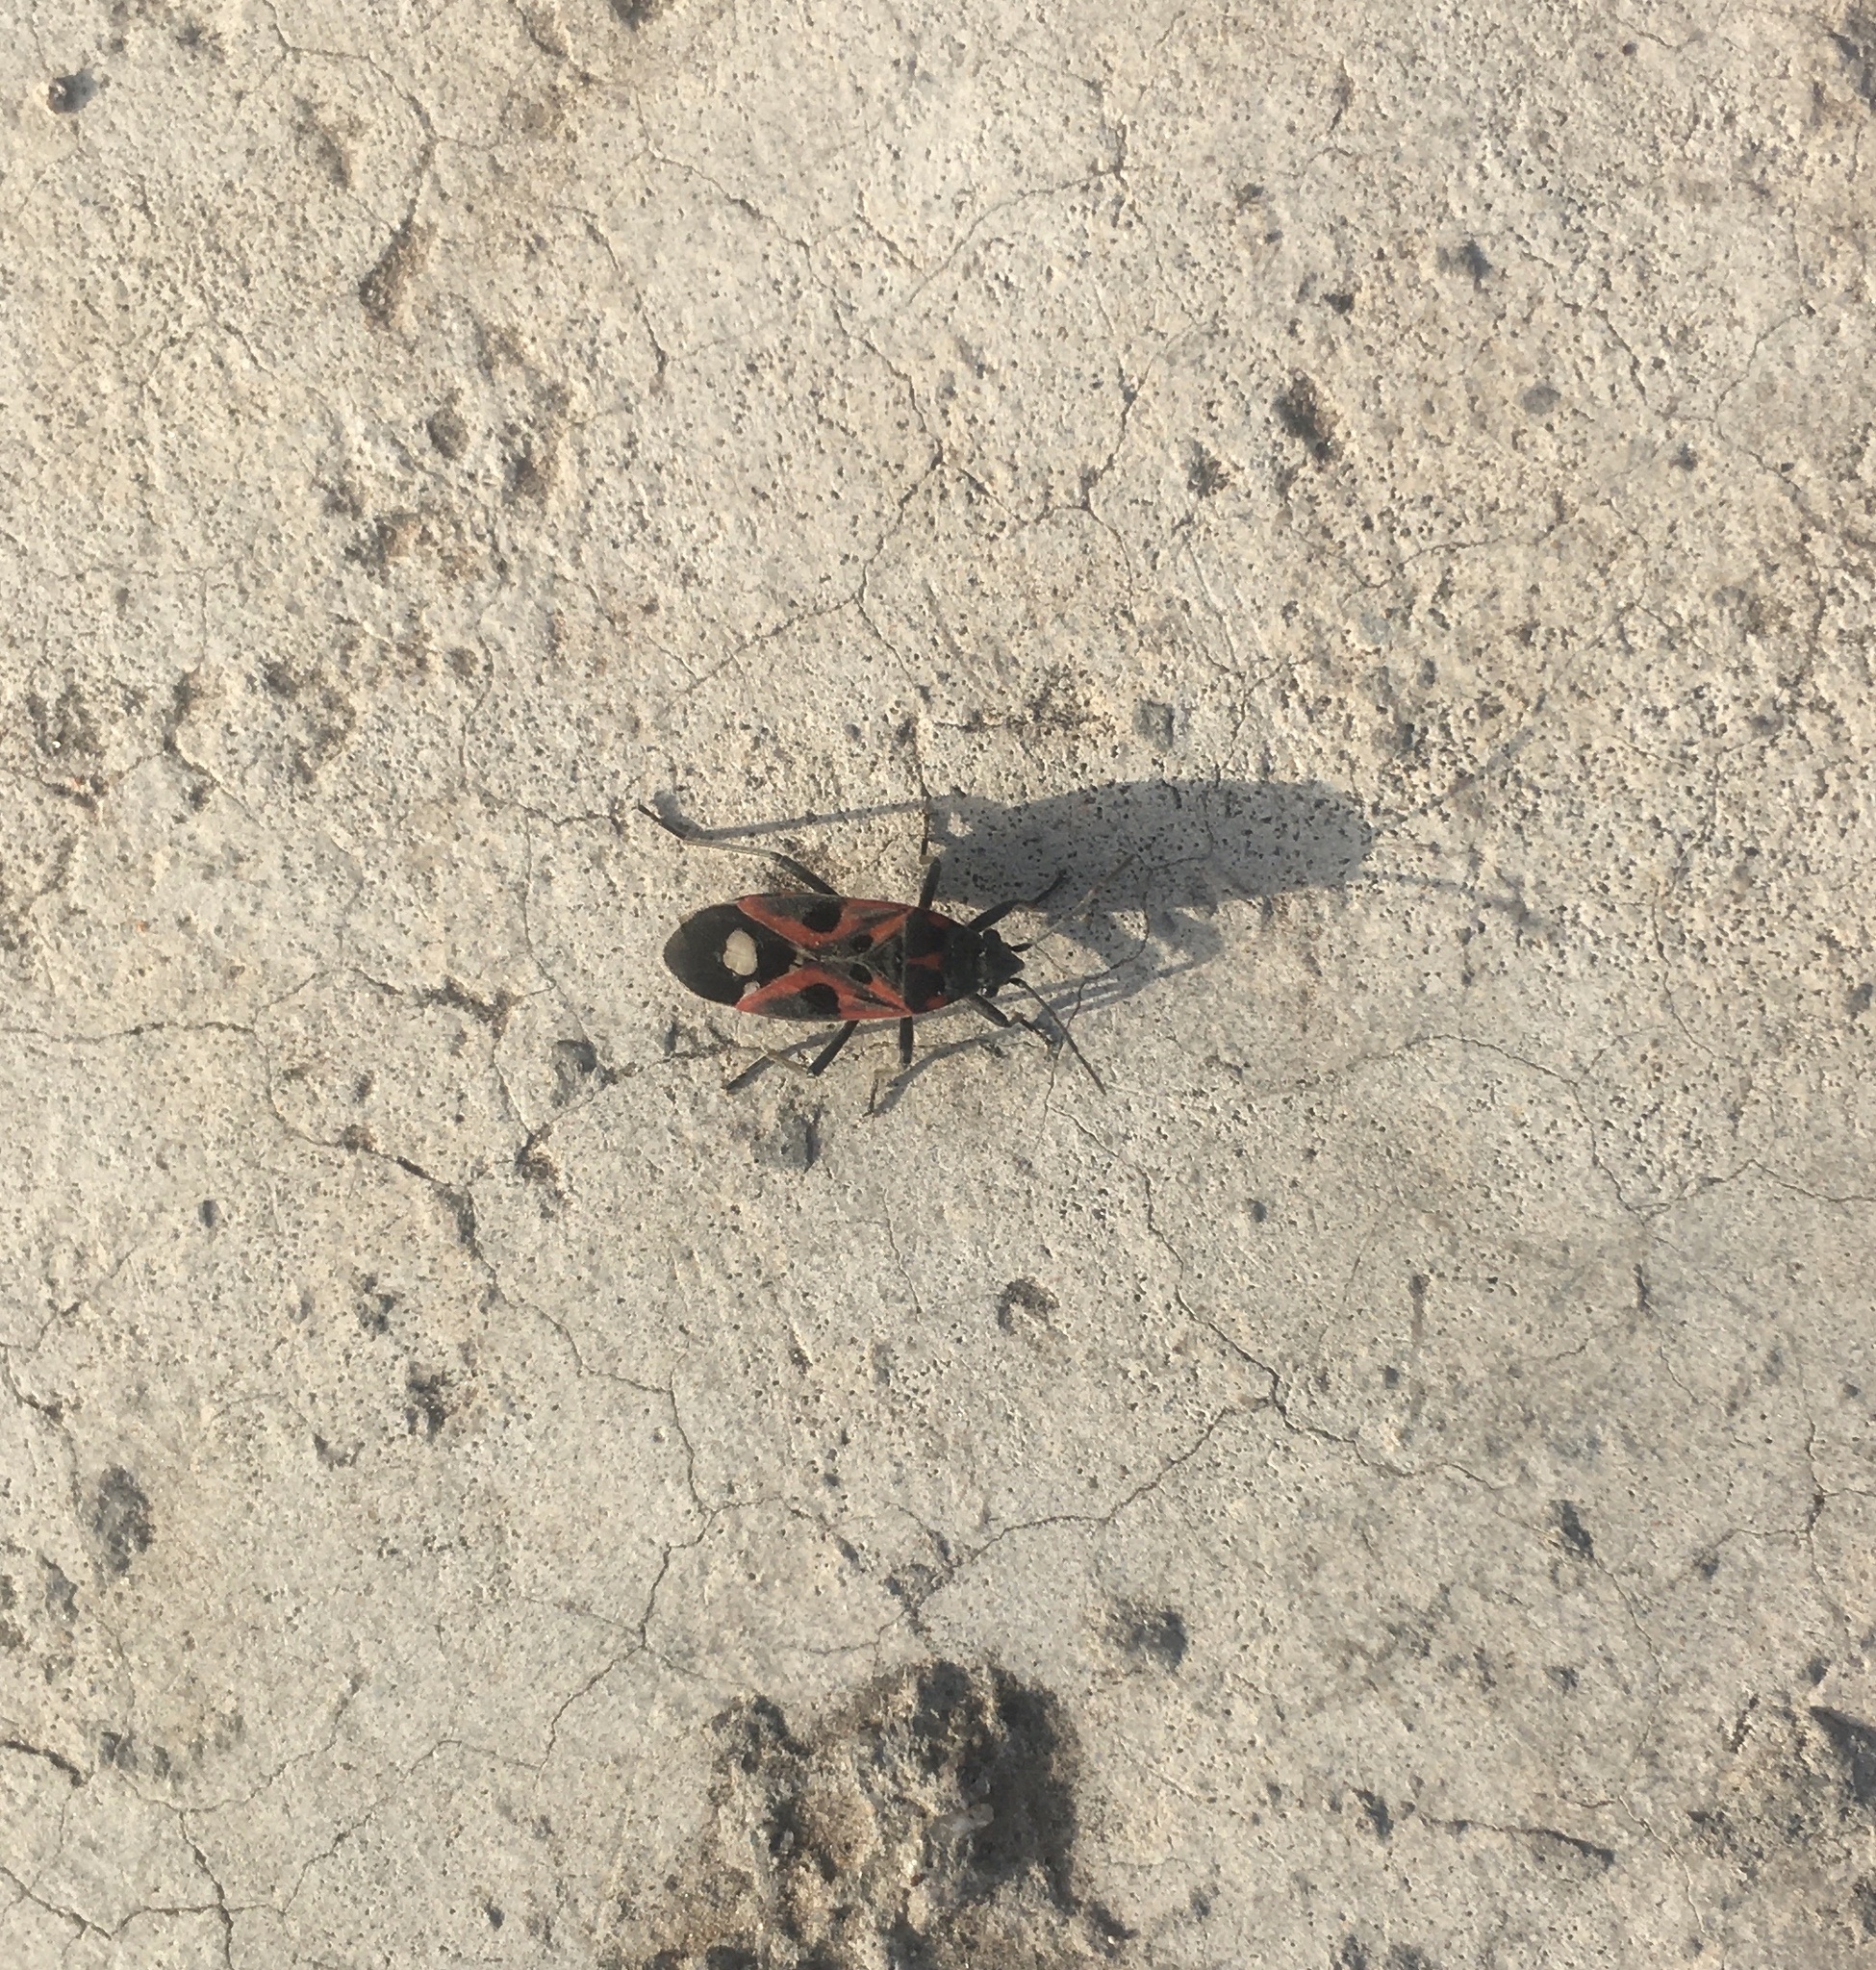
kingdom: Animalia
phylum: Arthropoda
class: Insecta
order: Hemiptera
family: Lygaeidae
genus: Lygaeus
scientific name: Lygaeus alboornatus
